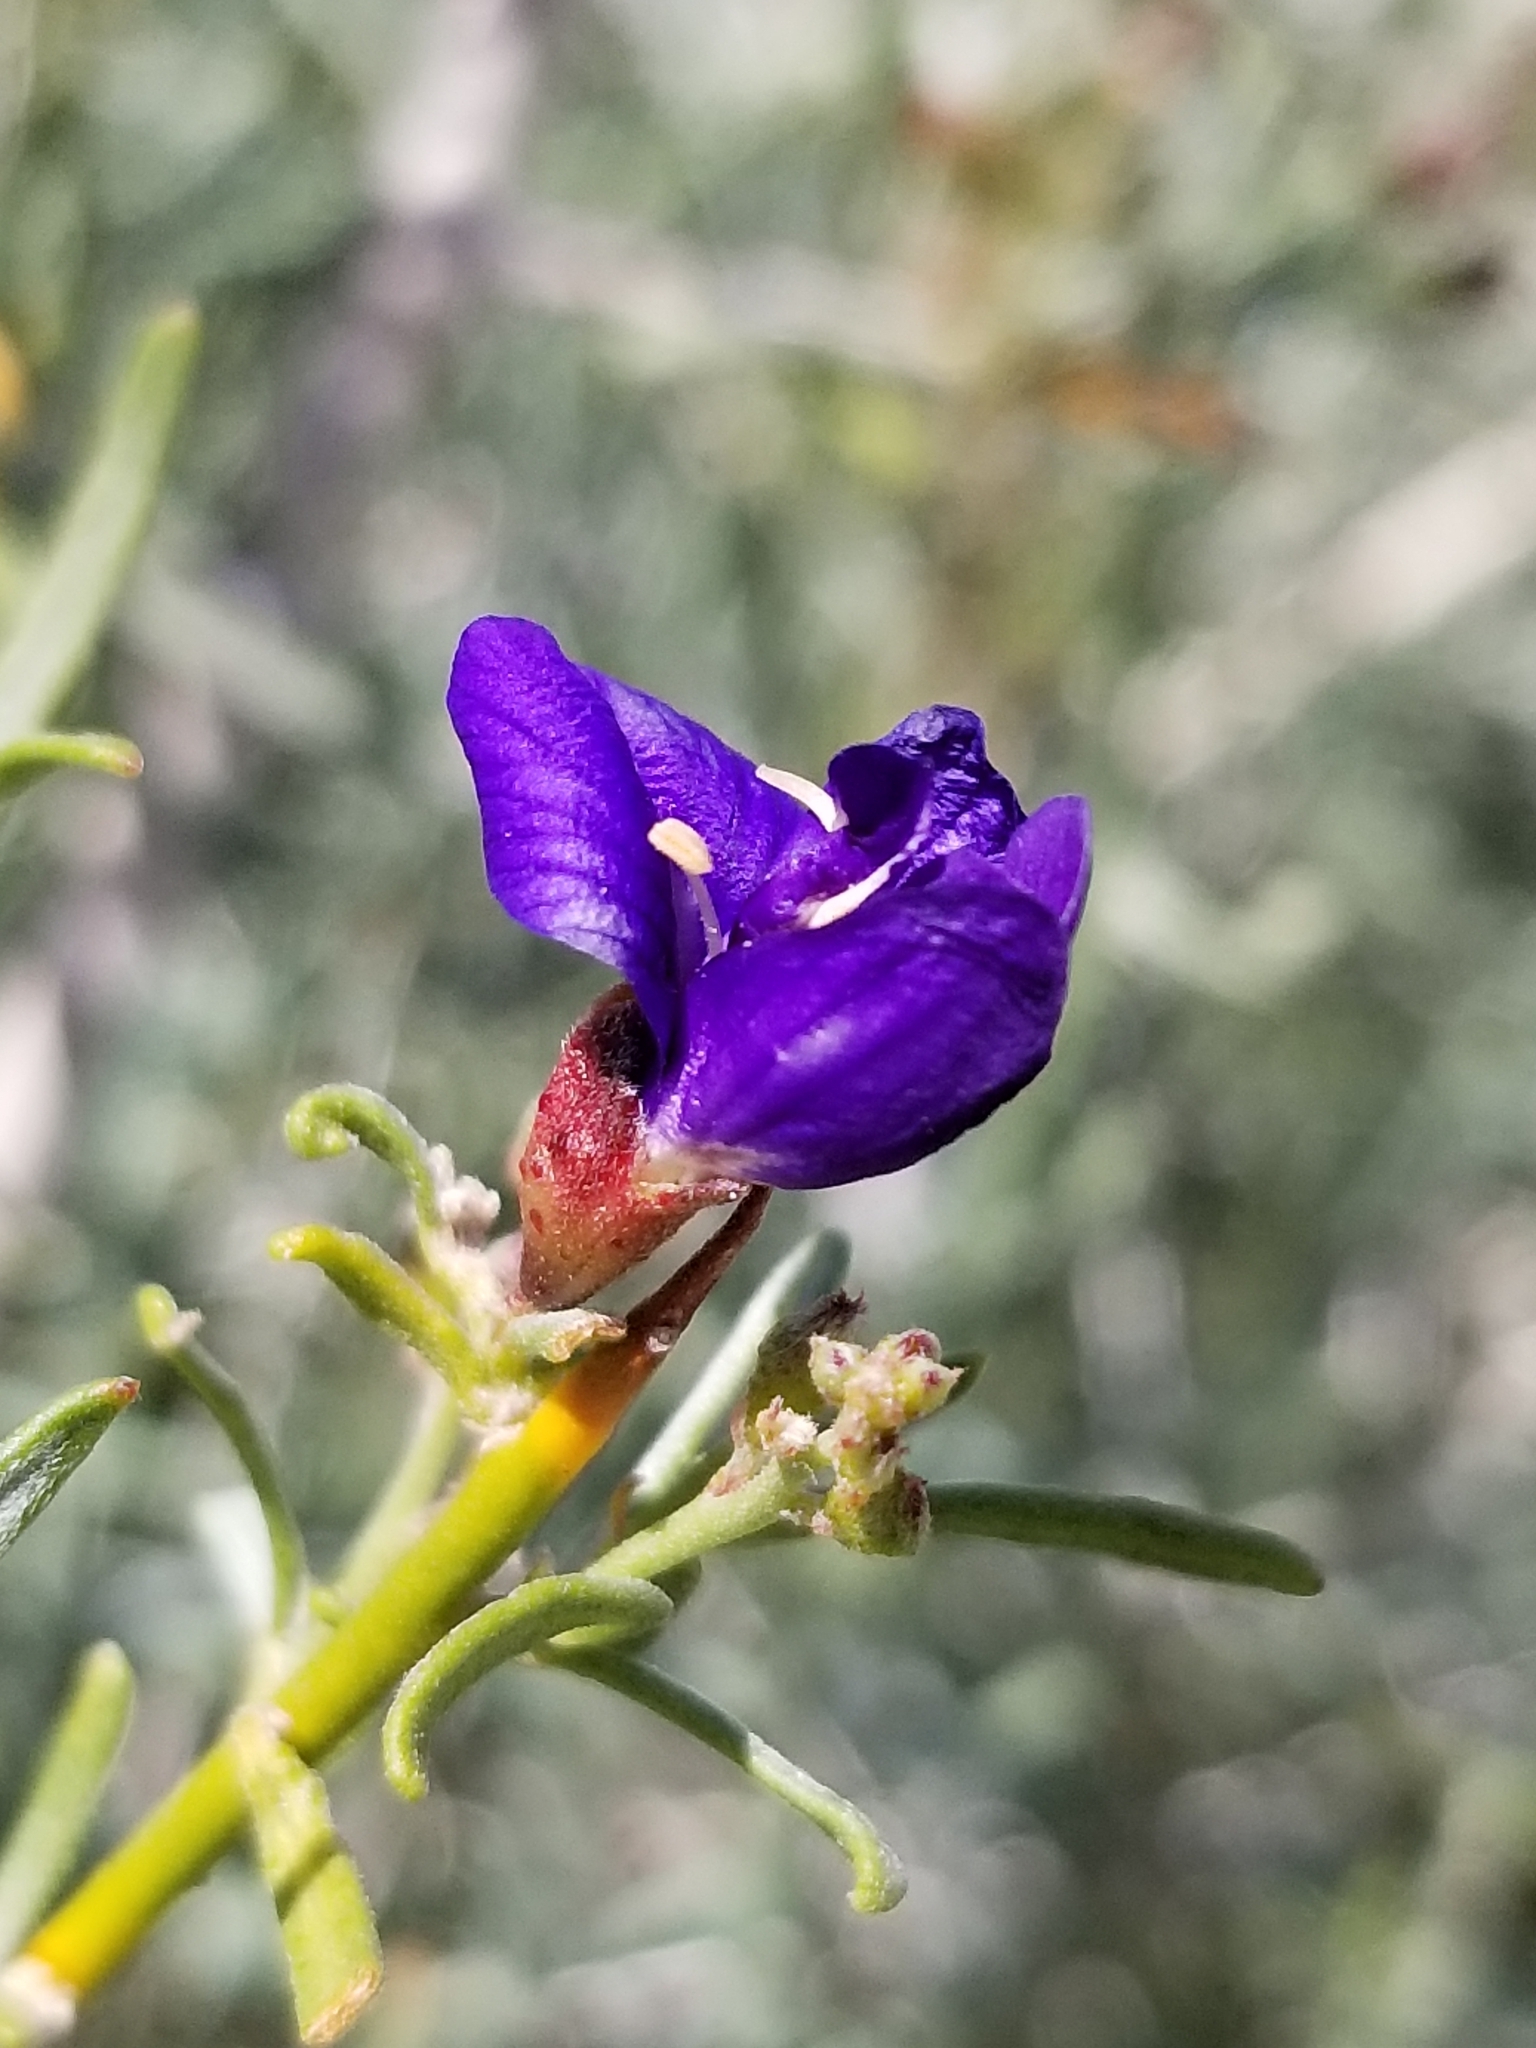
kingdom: Plantae
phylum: Tracheophyta
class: Magnoliopsida
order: Fabales
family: Fabaceae
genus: Psorothamnus
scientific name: Psorothamnus schottii
